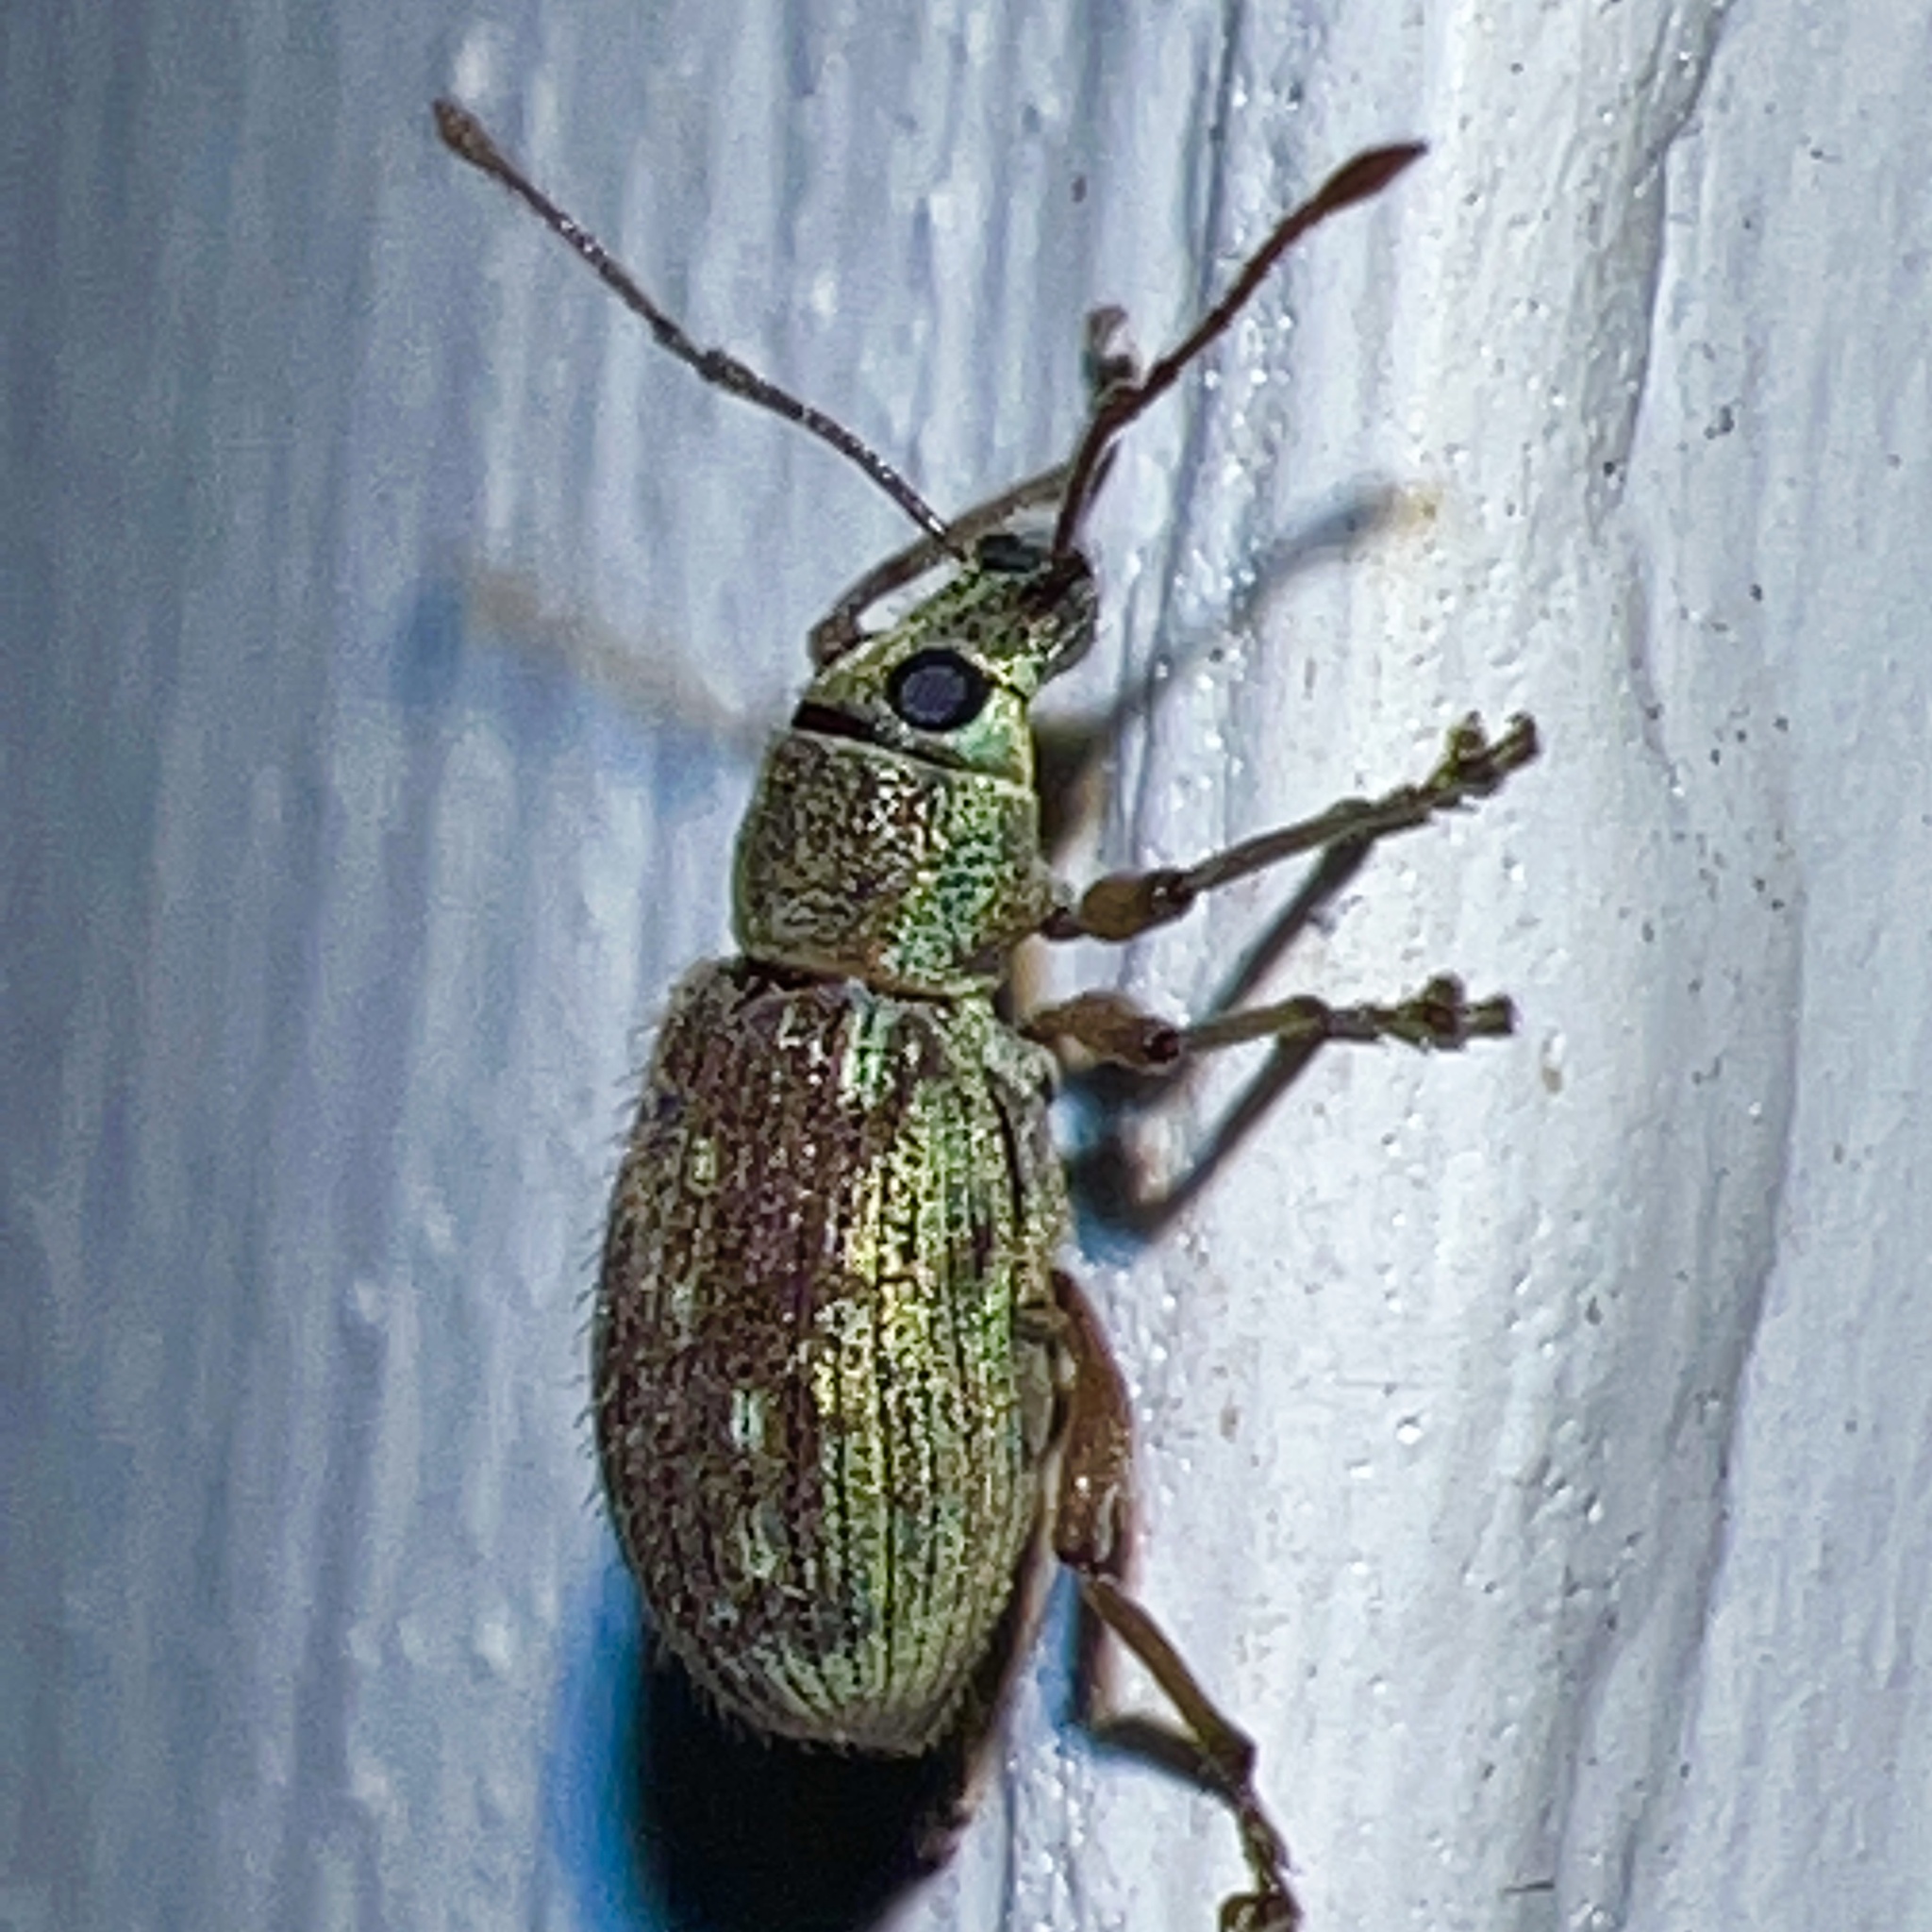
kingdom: Animalia
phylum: Arthropoda
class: Insecta
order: Coleoptera
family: Curculionidae
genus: Cyrtepistomus
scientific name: Cyrtepistomus castaneus
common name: Weevil
